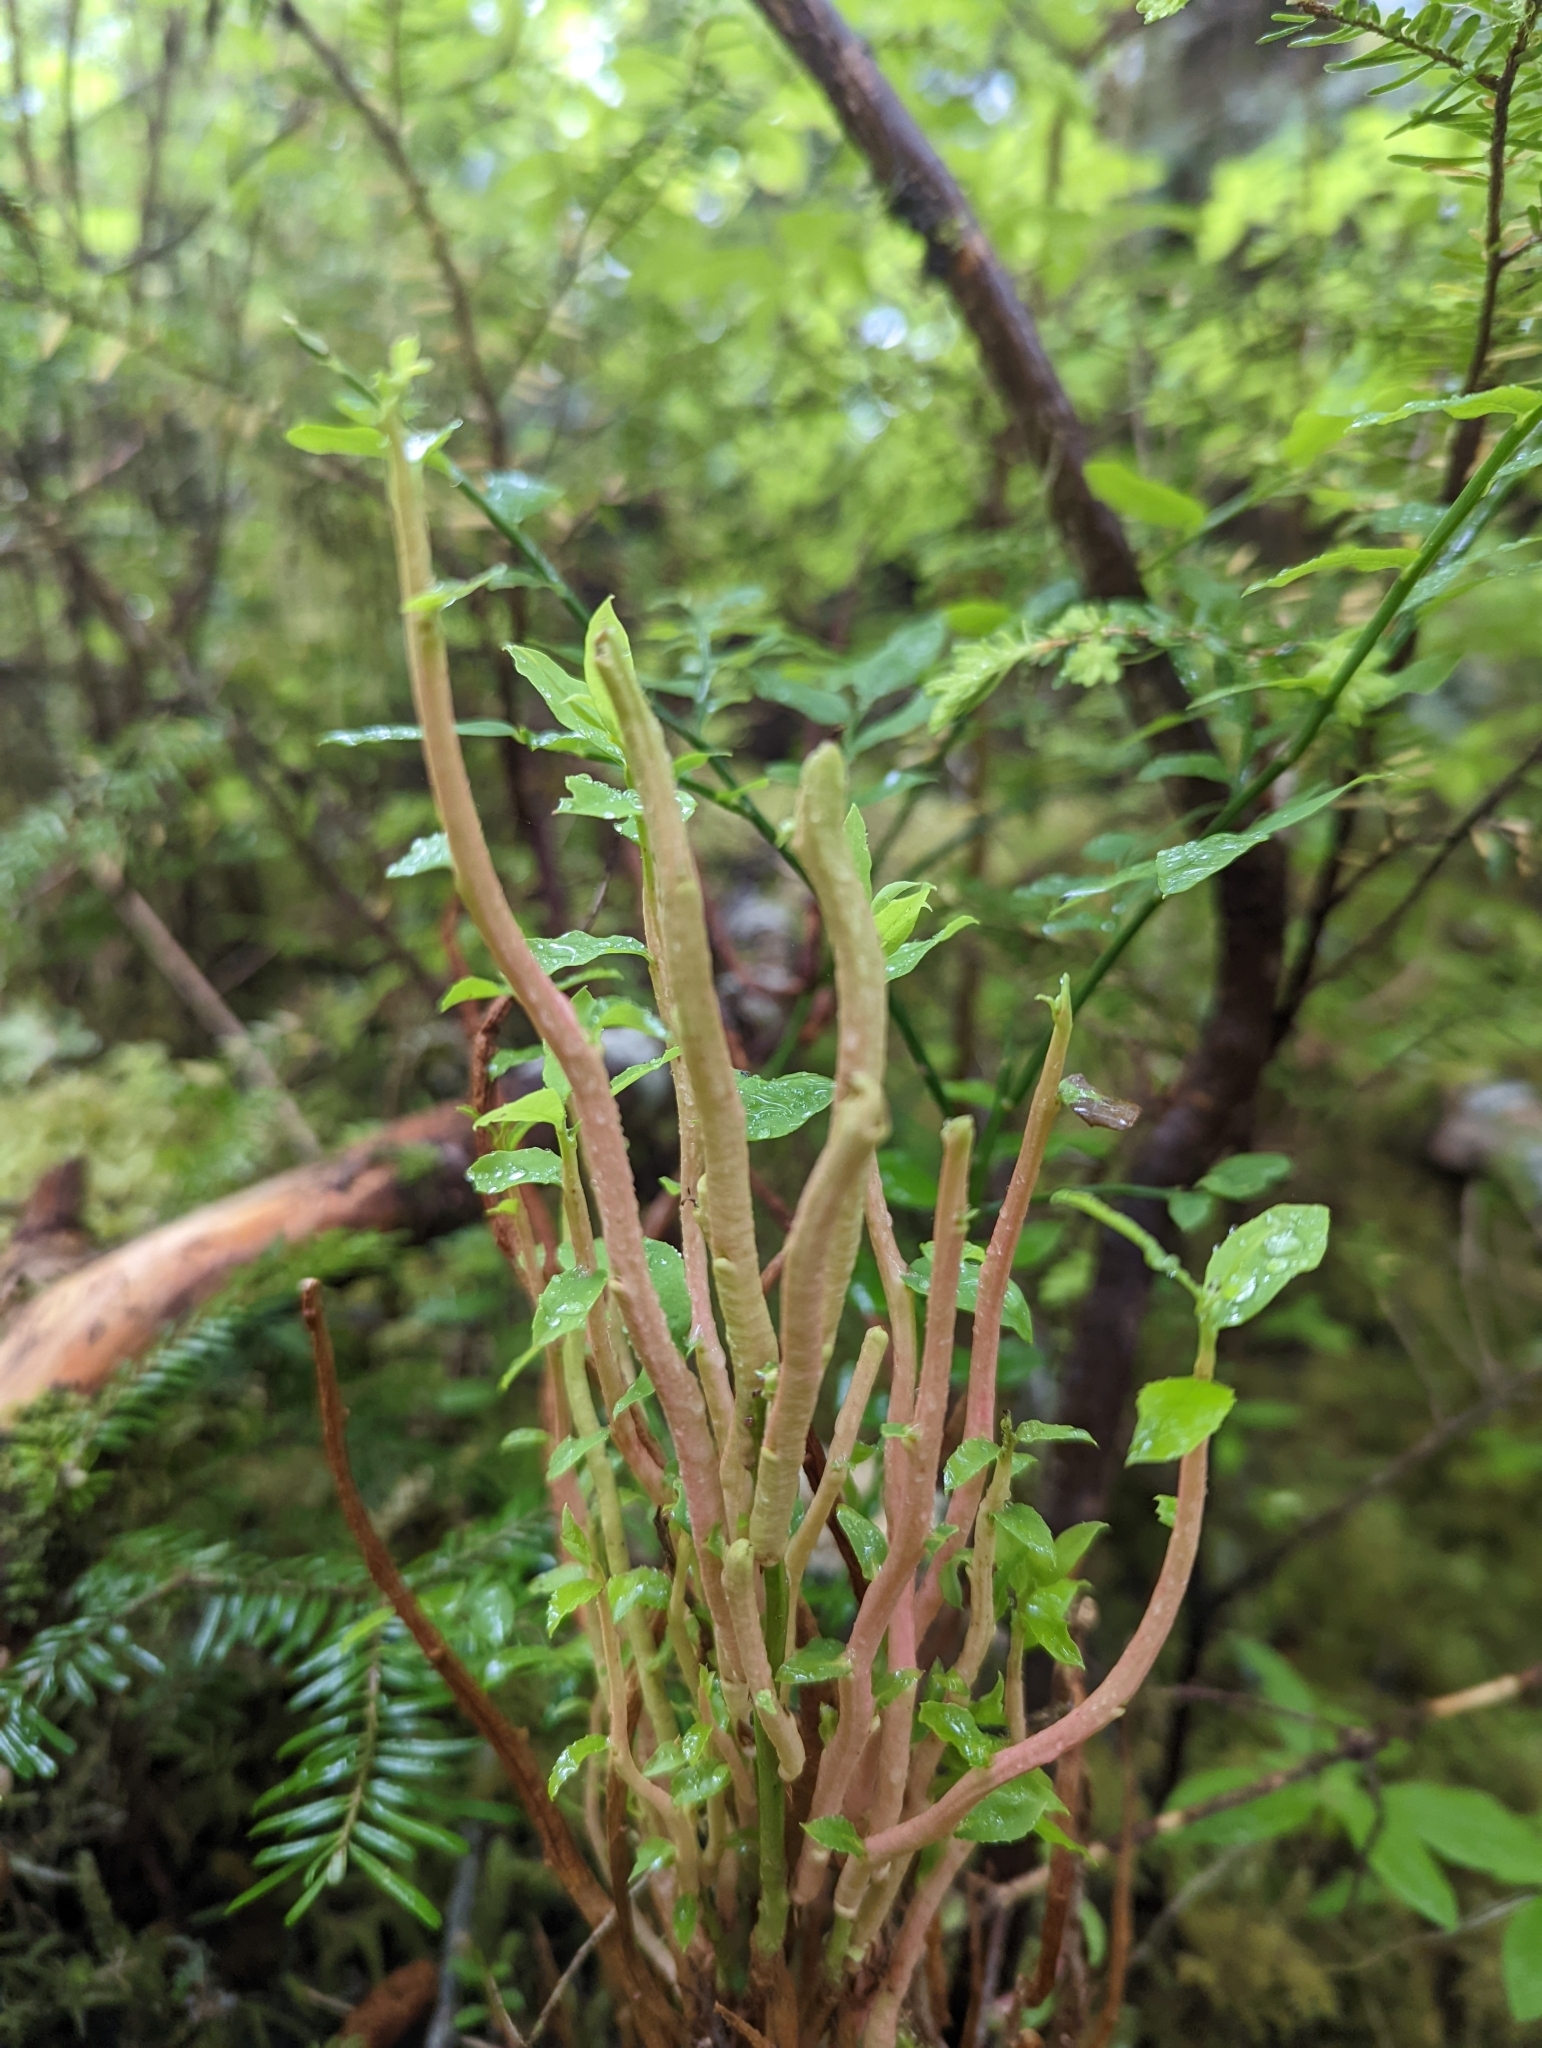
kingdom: Fungi
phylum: Basidiomycota
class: Pucciniomycetes
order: Pucciniales
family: Pucciniastraceae
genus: Calyptospora
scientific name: Calyptospora
